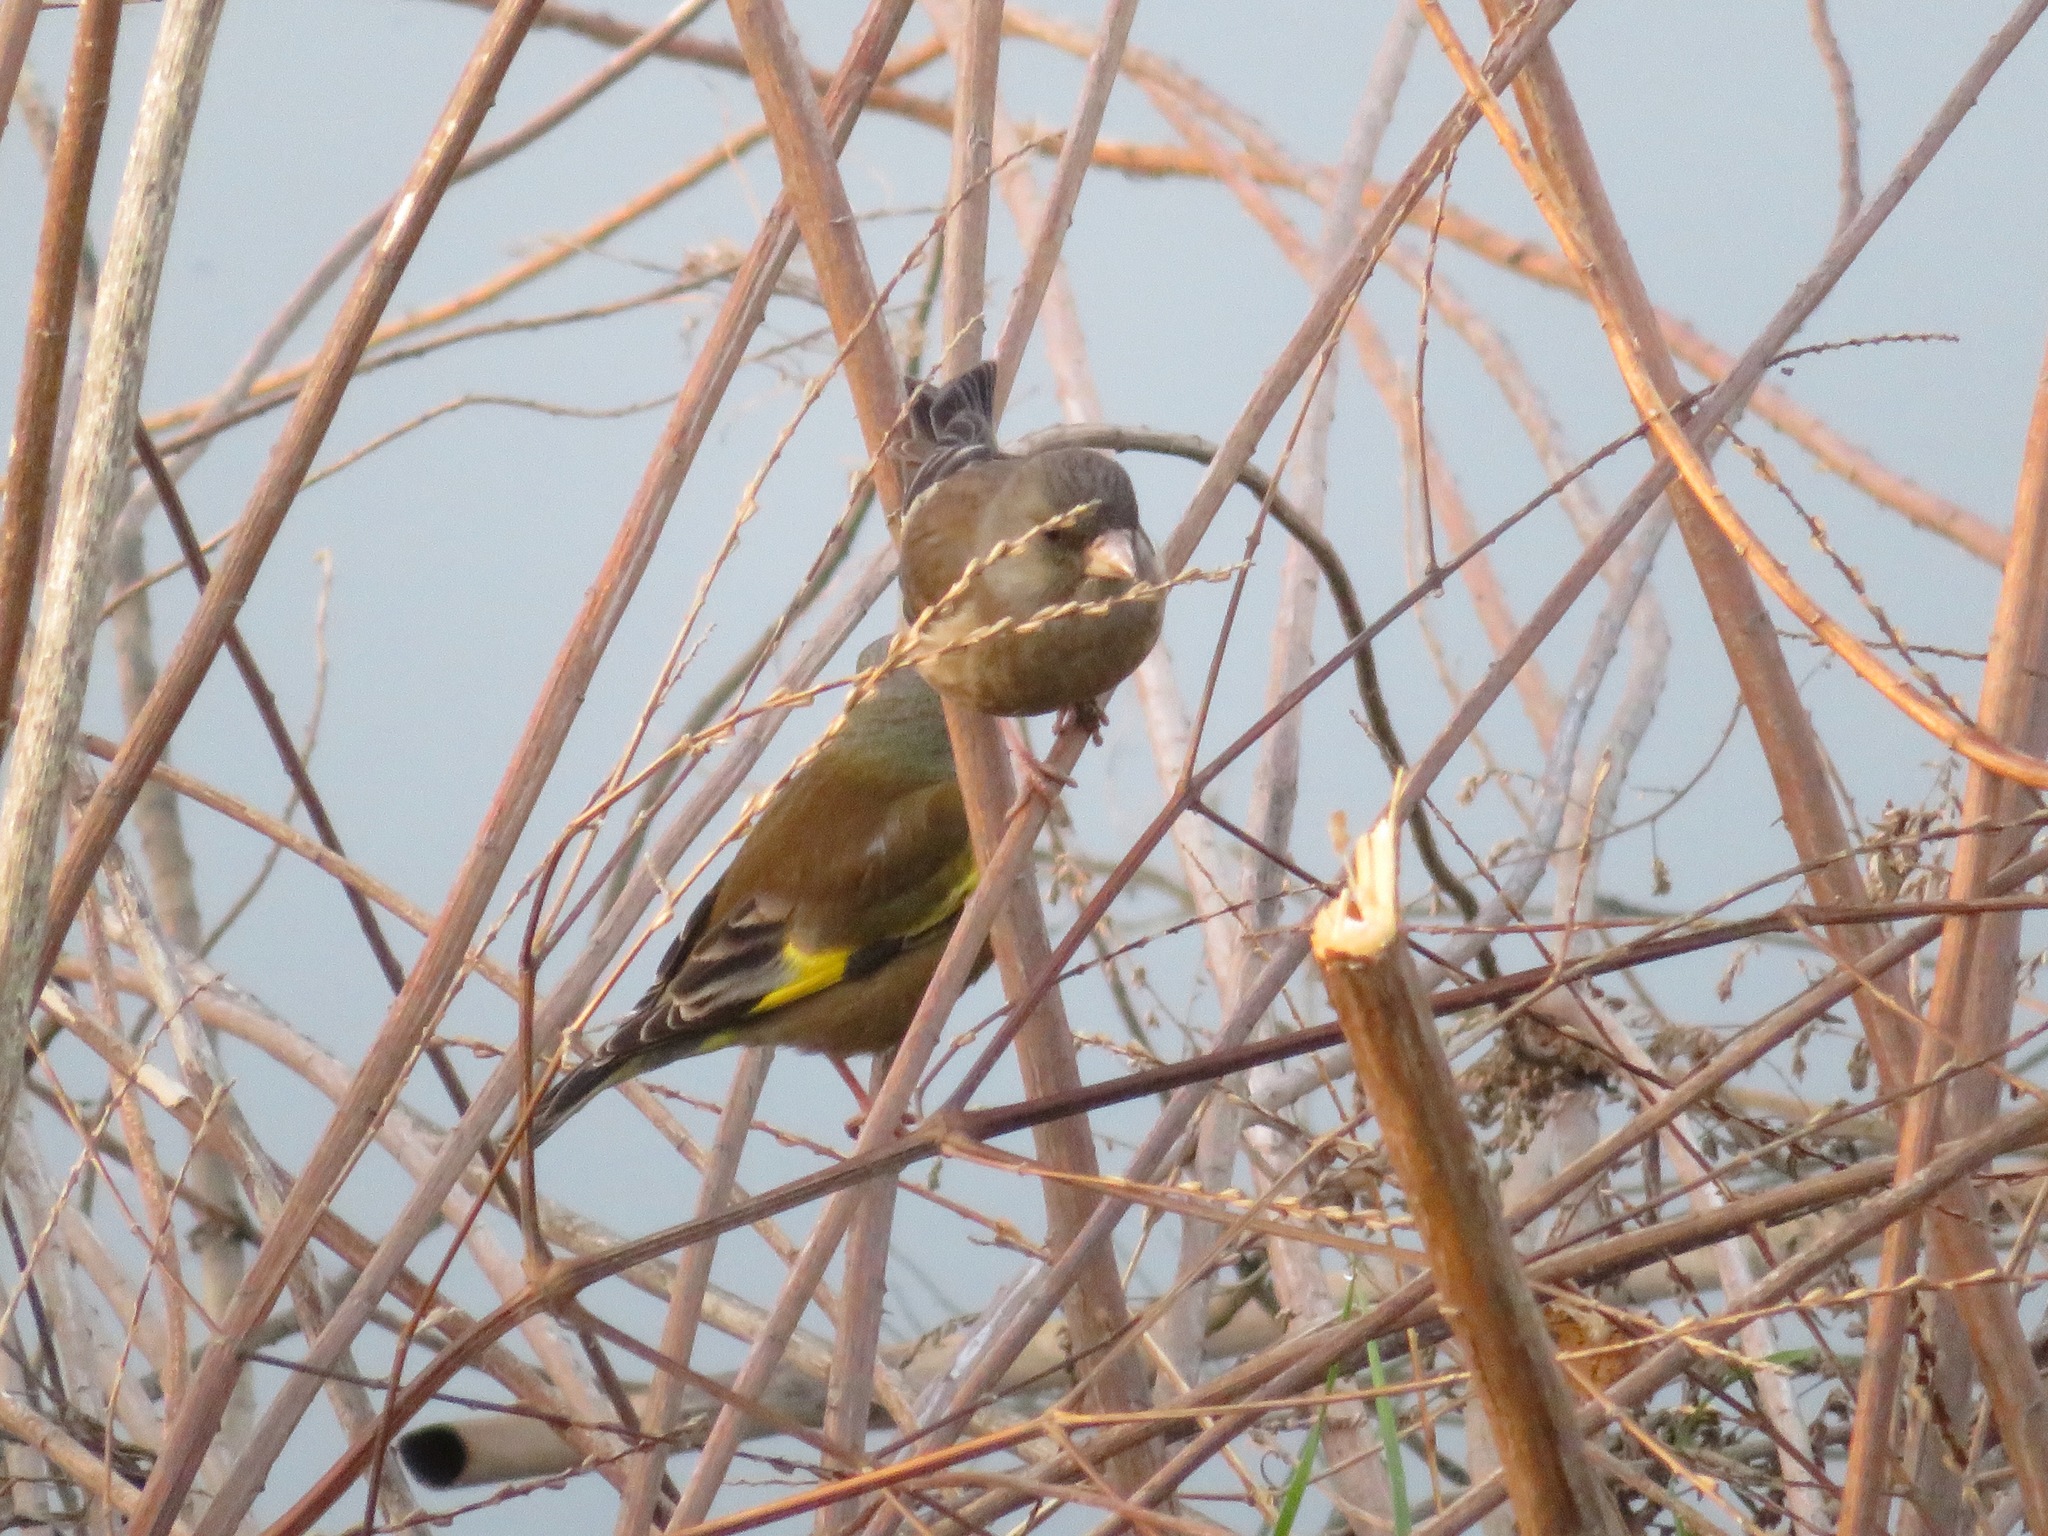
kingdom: Plantae
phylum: Tracheophyta
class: Liliopsida
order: Poales
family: Poaceae
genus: Chloris
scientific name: Chloris sinica
